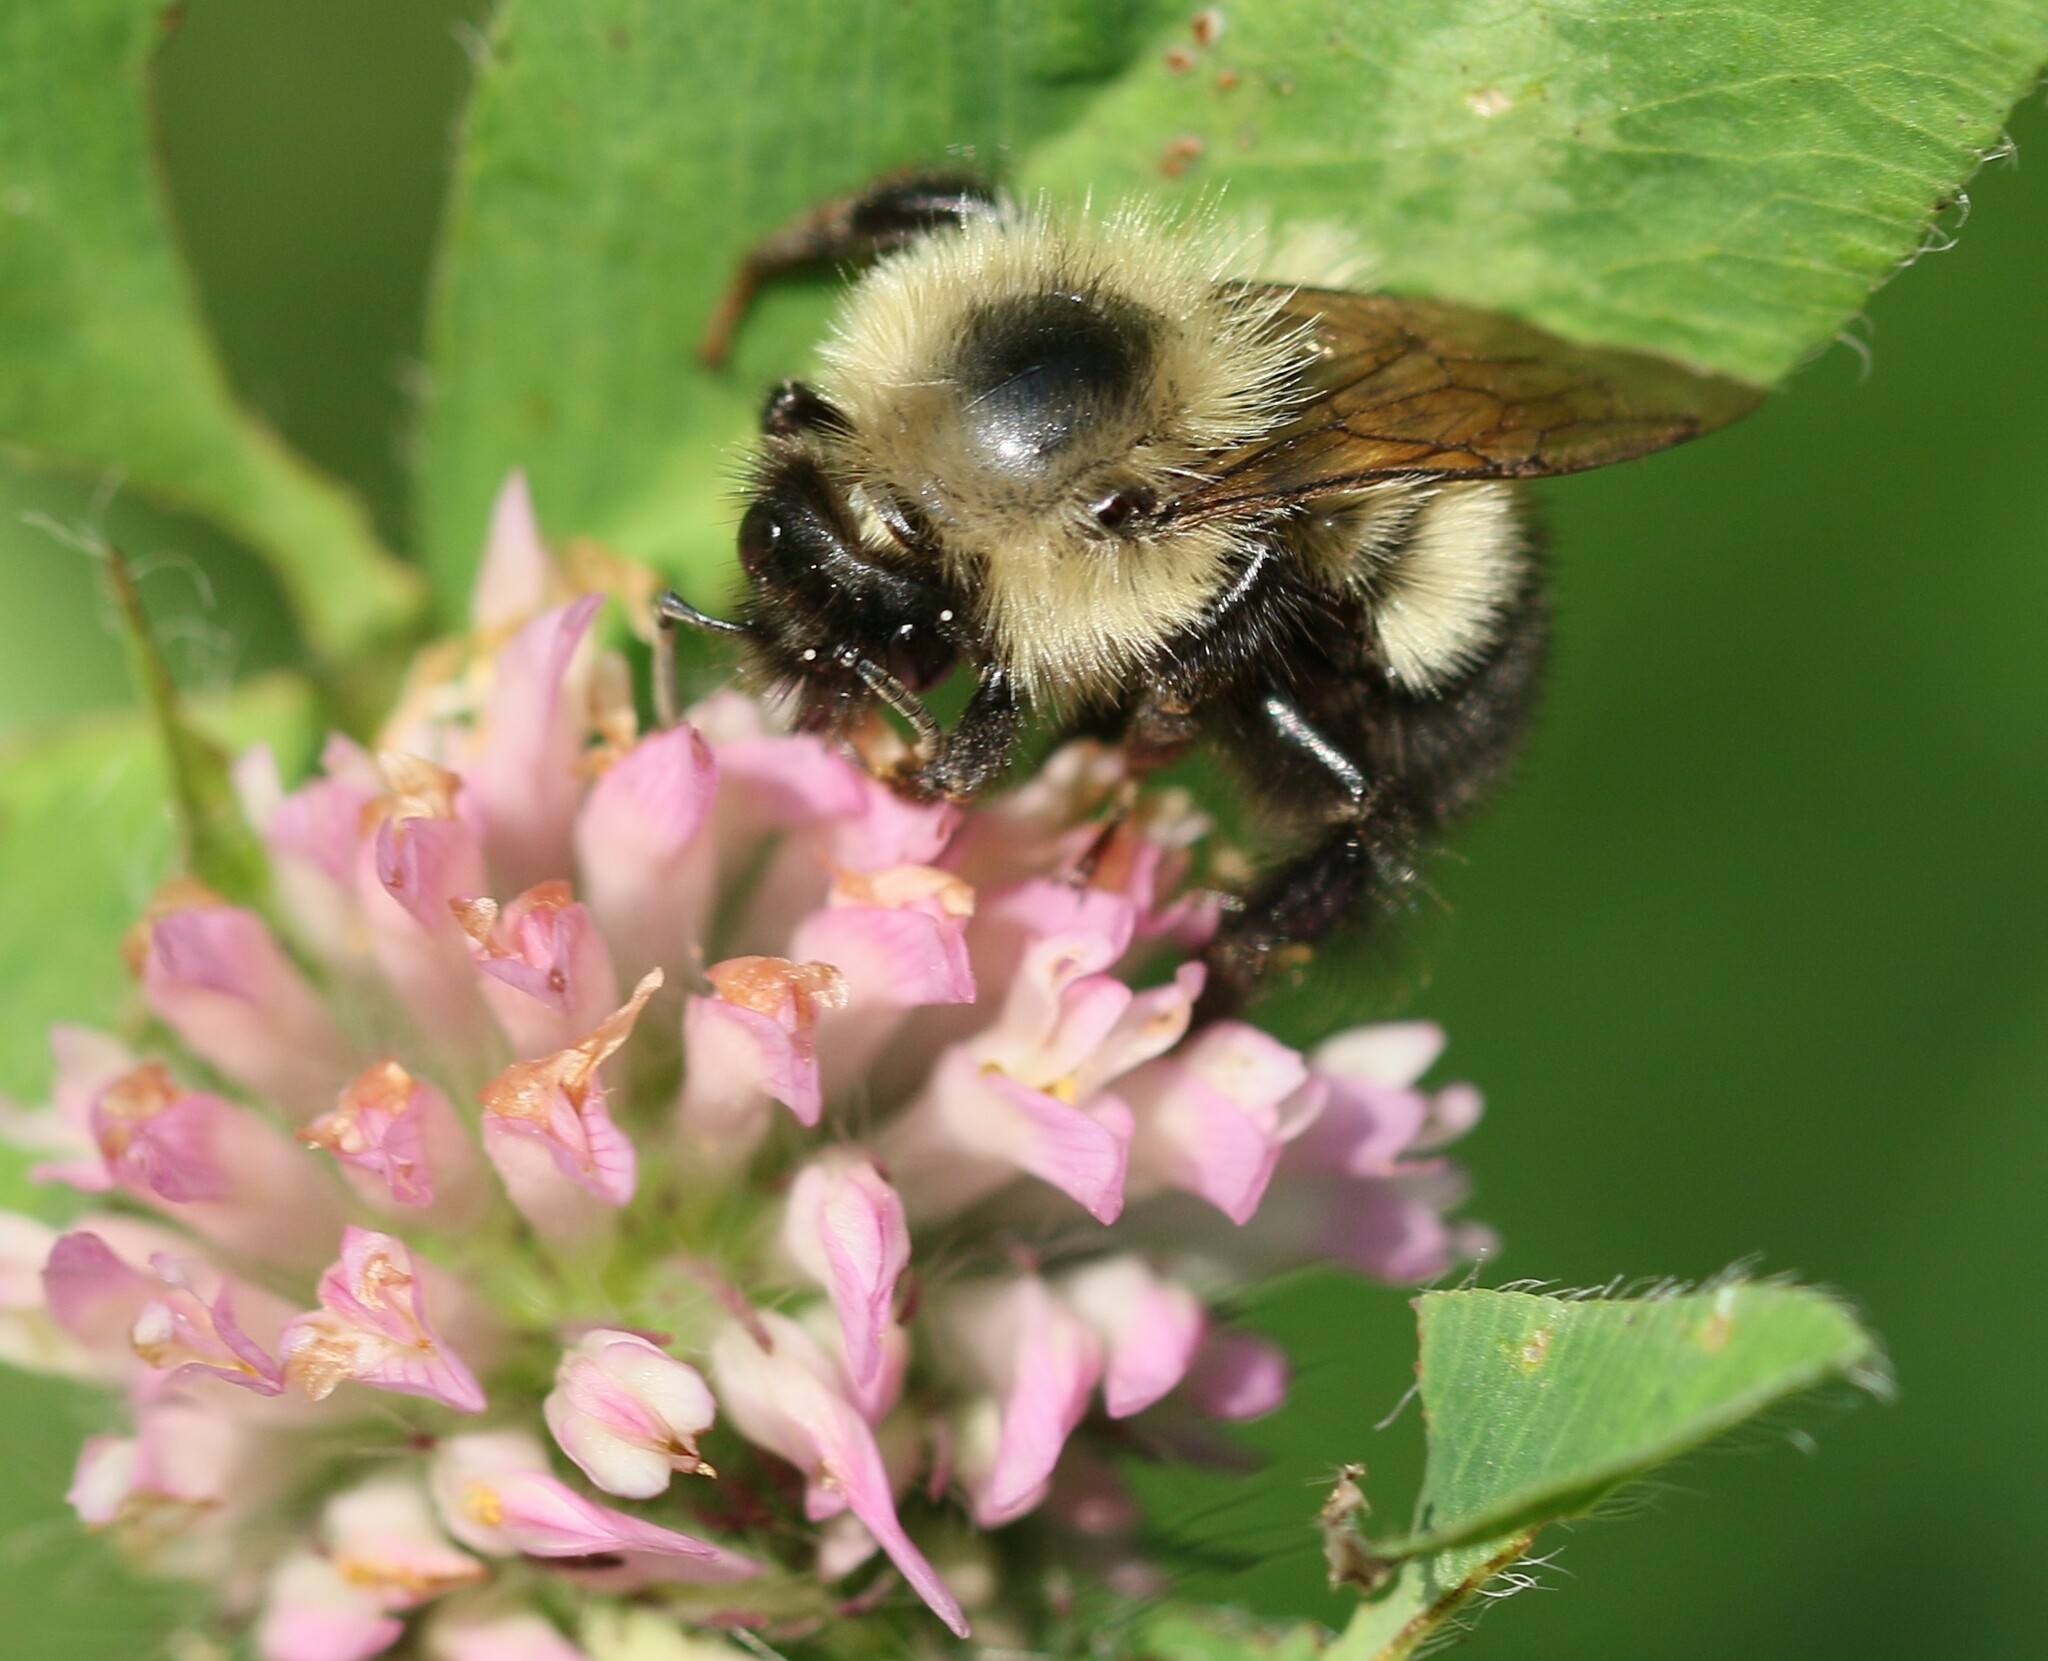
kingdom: Animalia
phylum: Arthropoda
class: Insecta
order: Hymenoptera
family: Apidae
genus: Pyrobombus
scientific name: Pyrobombus
